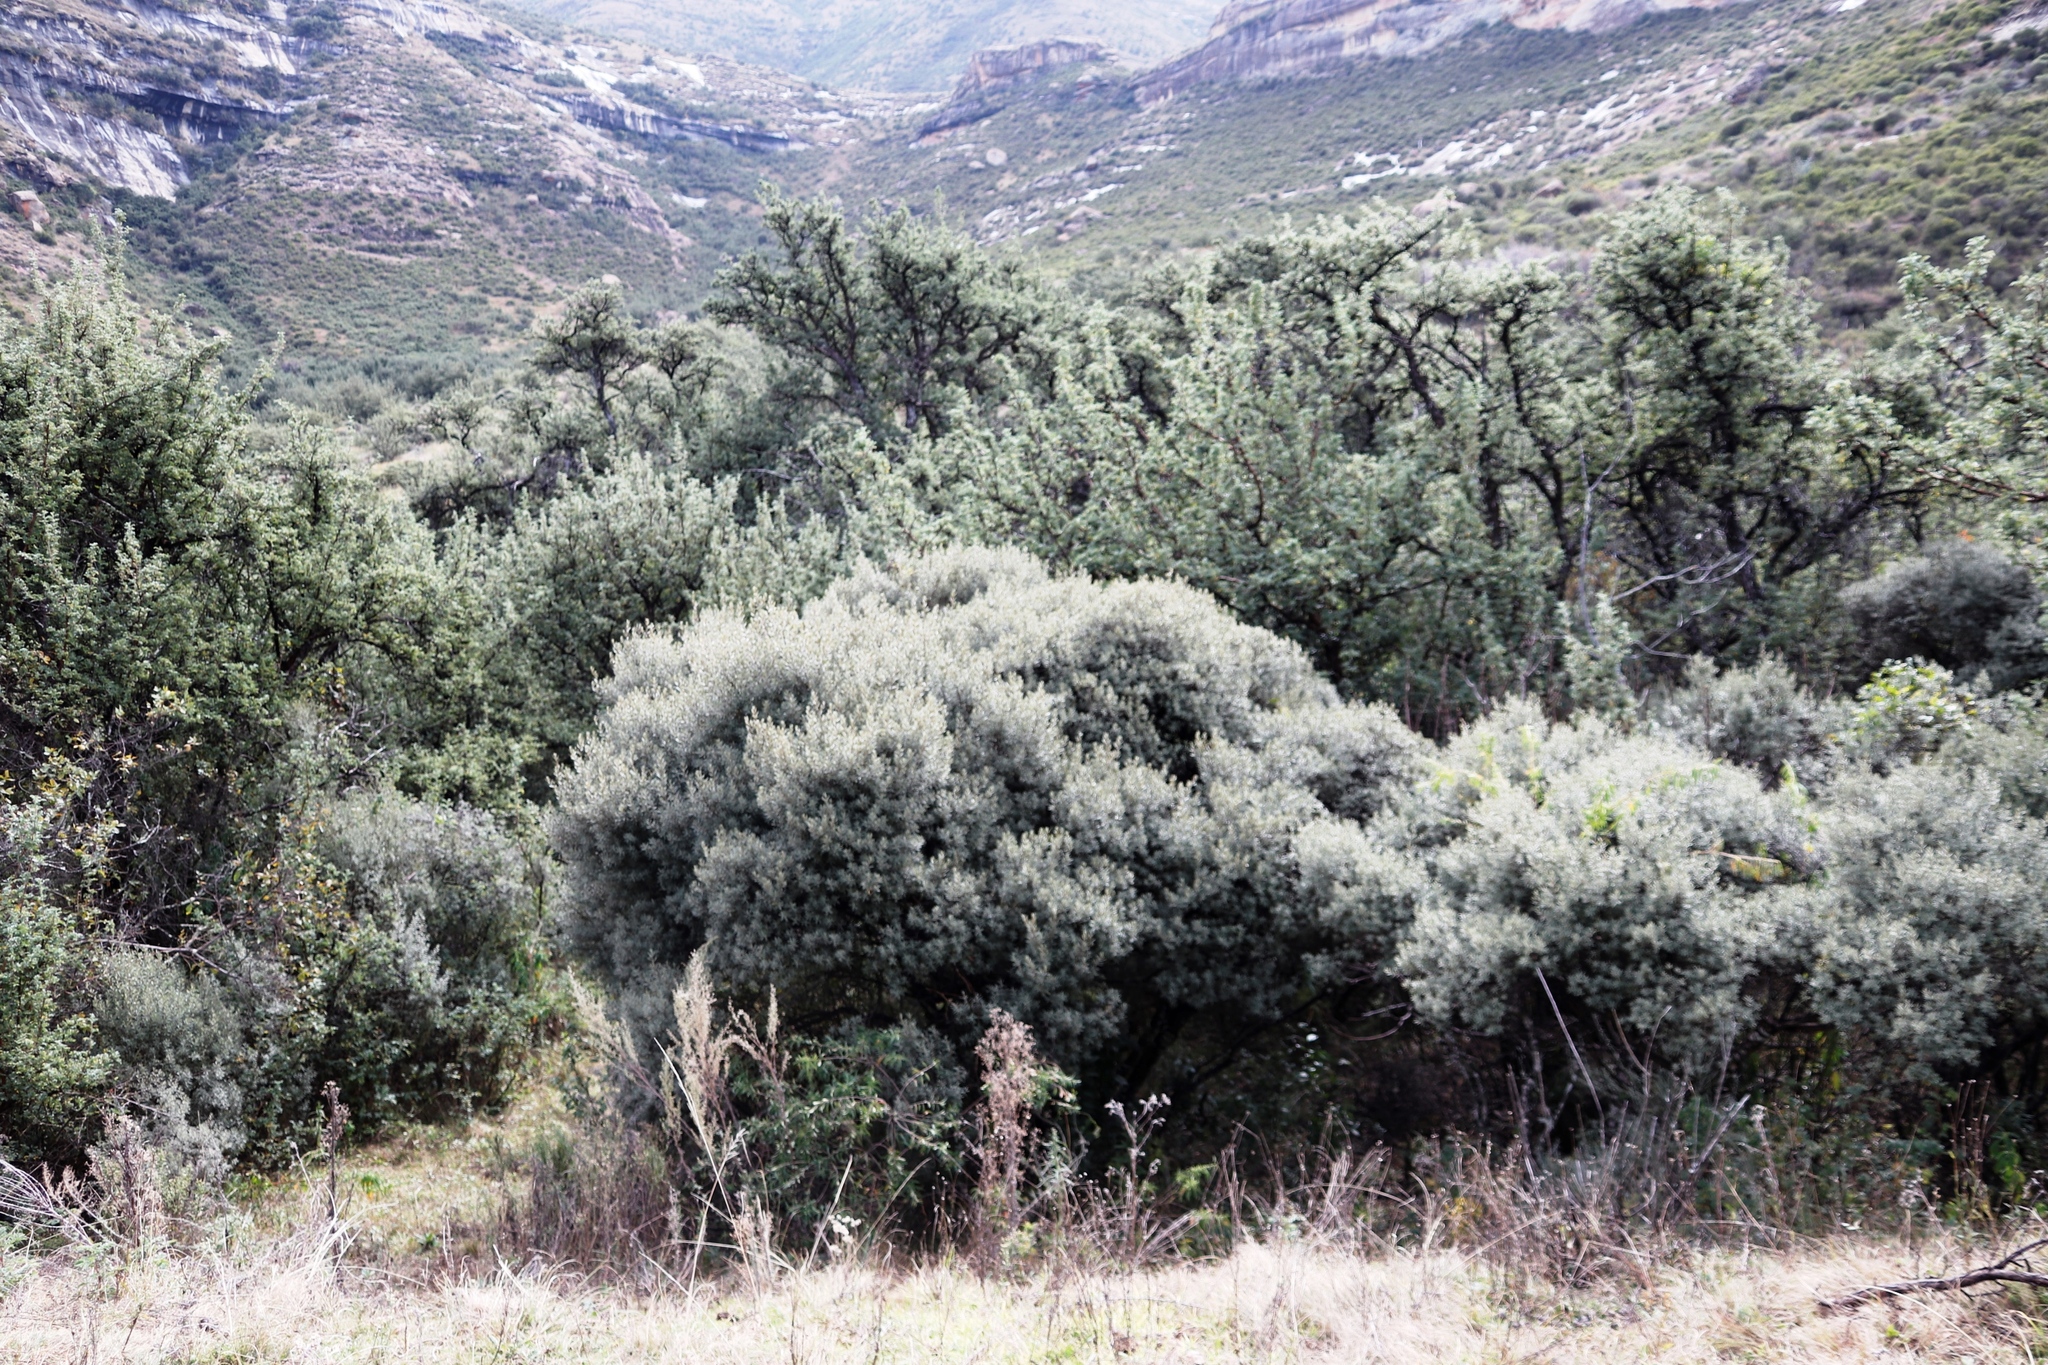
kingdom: Plantae
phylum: Tracheophyta
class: Magnoliopsida
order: Ericales
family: Ebenaceae
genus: Diospyros
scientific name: Diospyros pubescens
